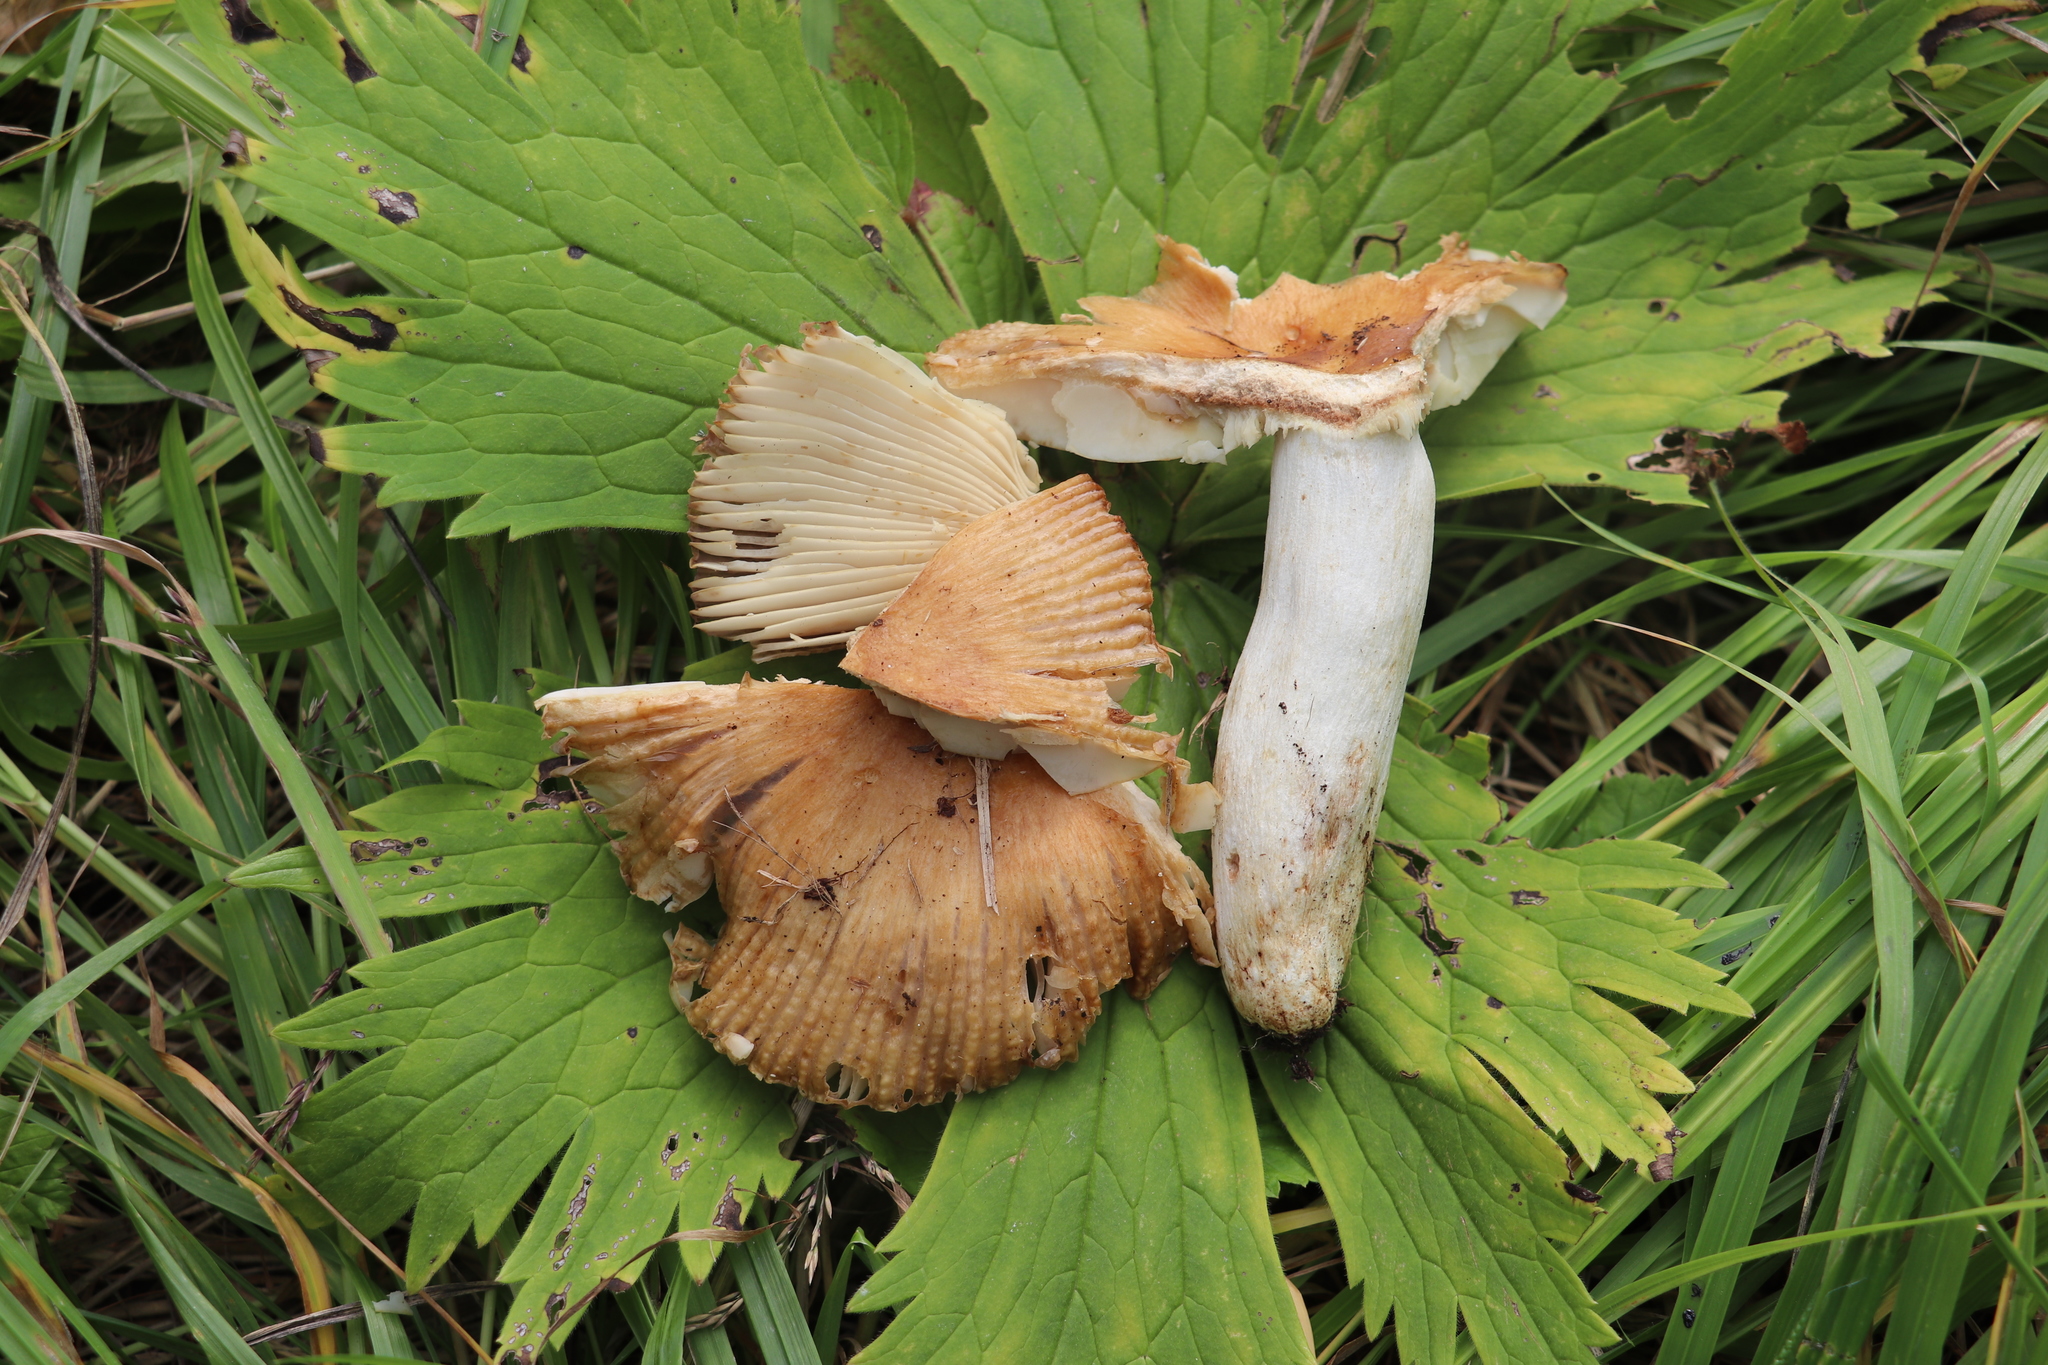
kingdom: Fungi
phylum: Basidiomycota
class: Agaricomycetes
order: Russulales
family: Russulaceae
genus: Russula
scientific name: Russula foetens
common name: Foetid russula
